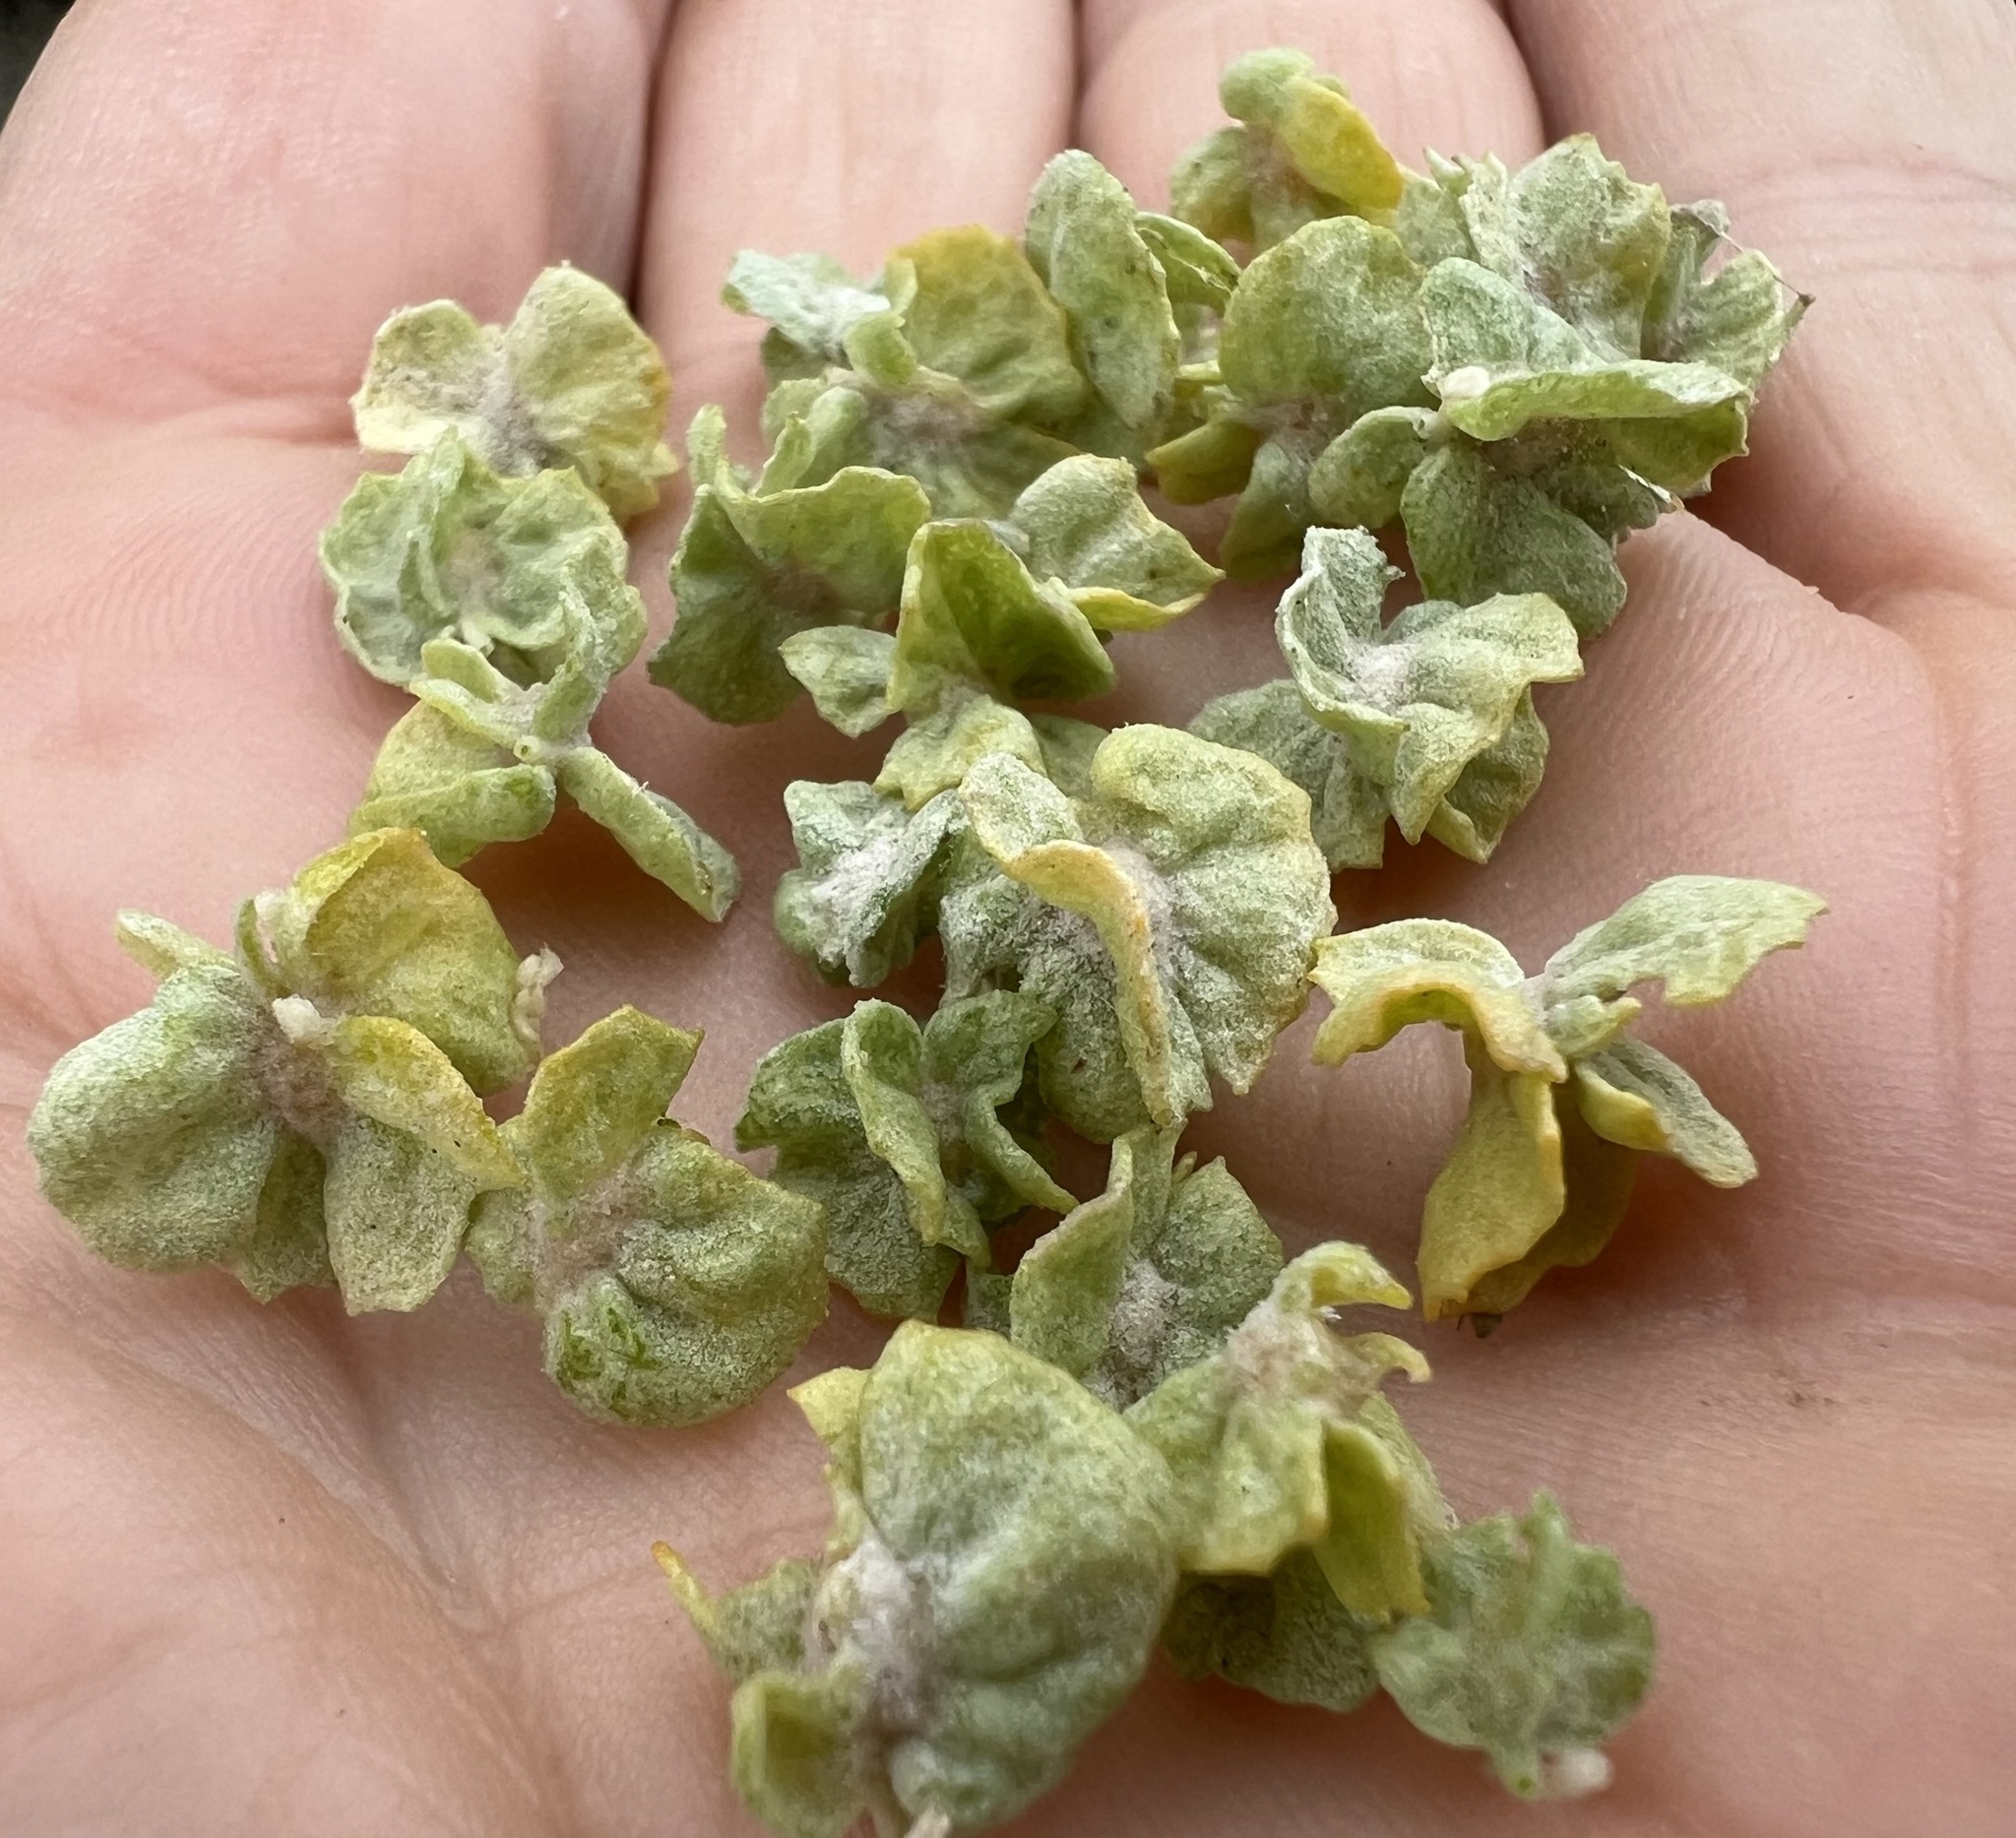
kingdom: Plantae
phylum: Tracheophyta
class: Magnoliopsida
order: Caryophyllales
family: Amaranthaceae
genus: Atriplex
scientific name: Atriplex canescens
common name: Four-wing saltbush
